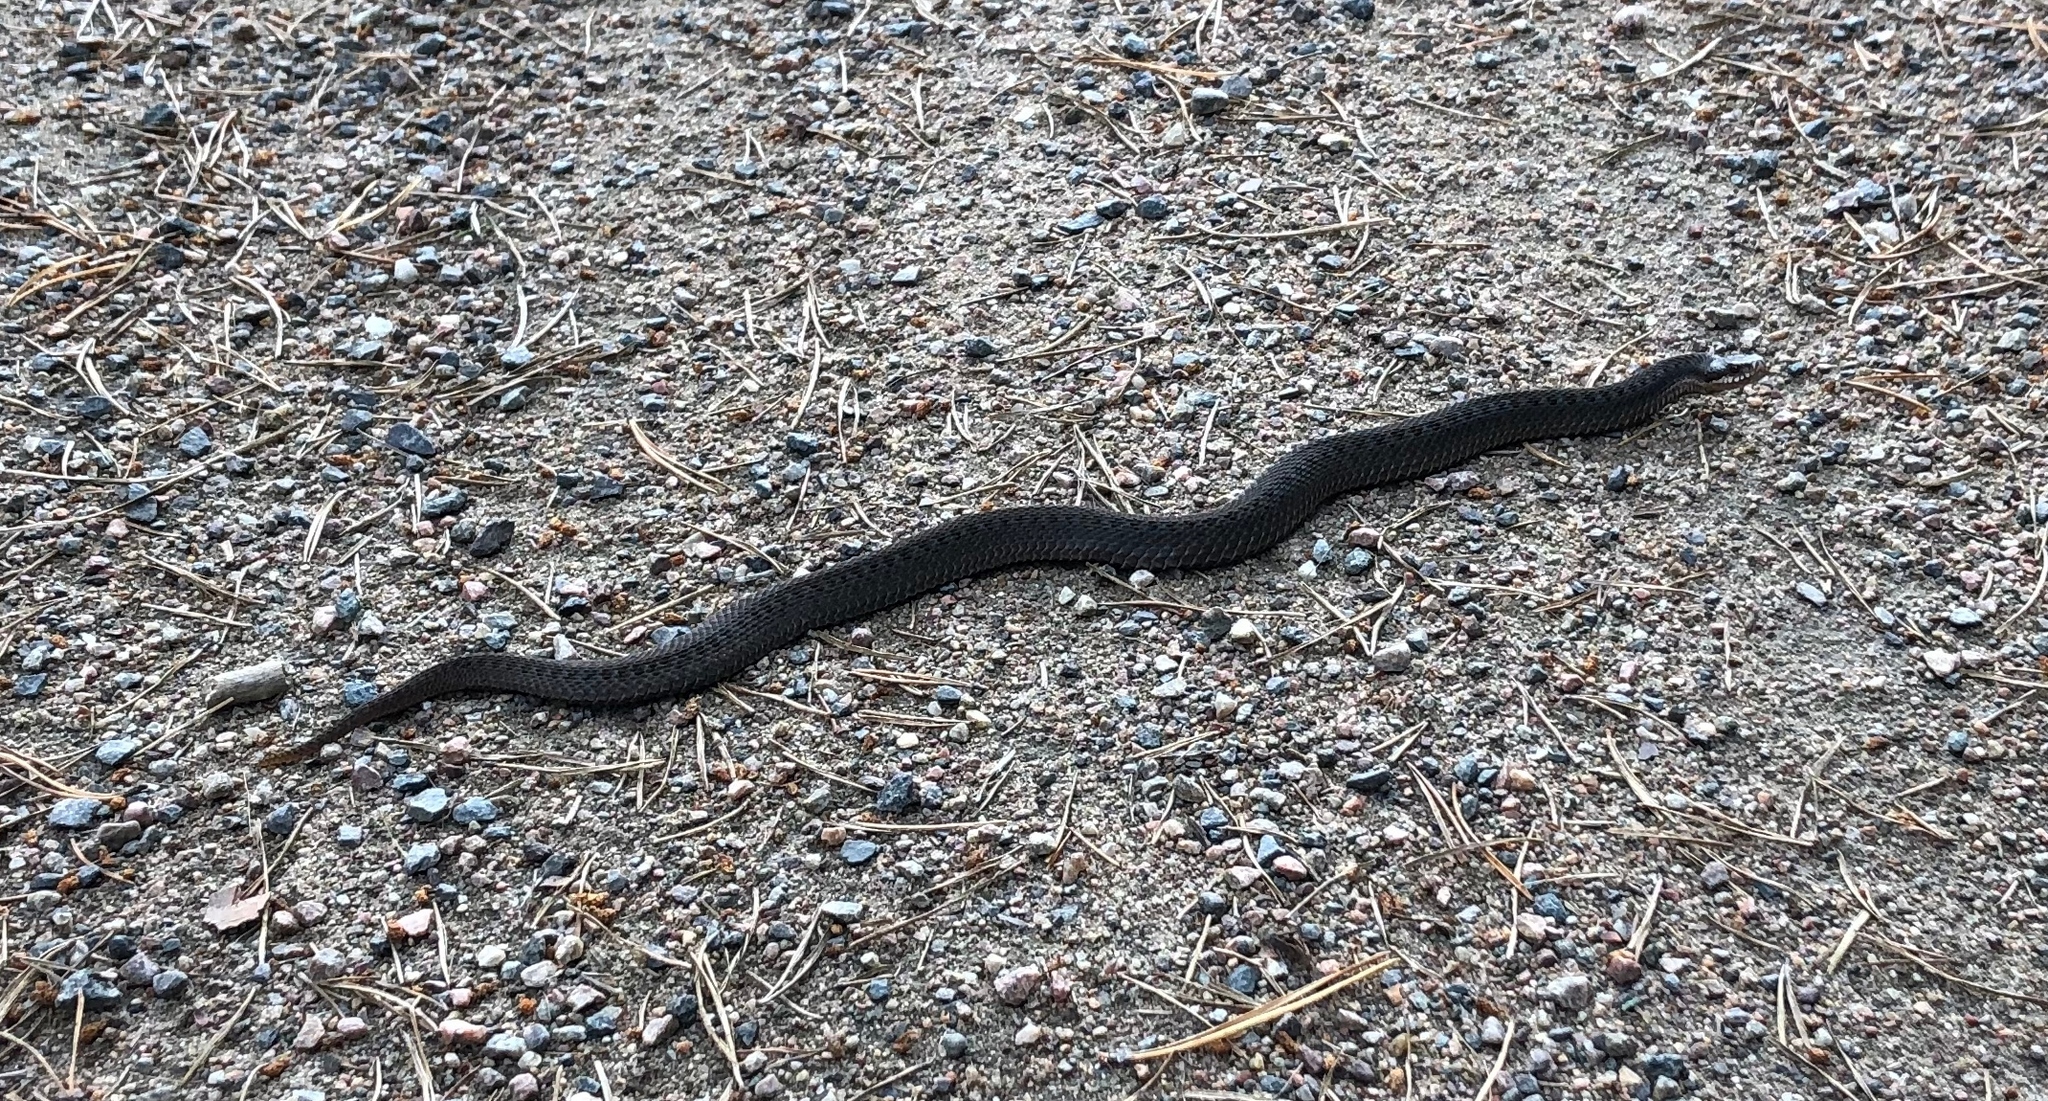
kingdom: Animalia
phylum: Chordata
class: Squamata
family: Viperidae
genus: Vipera
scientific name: Vipera berus
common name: Adder
